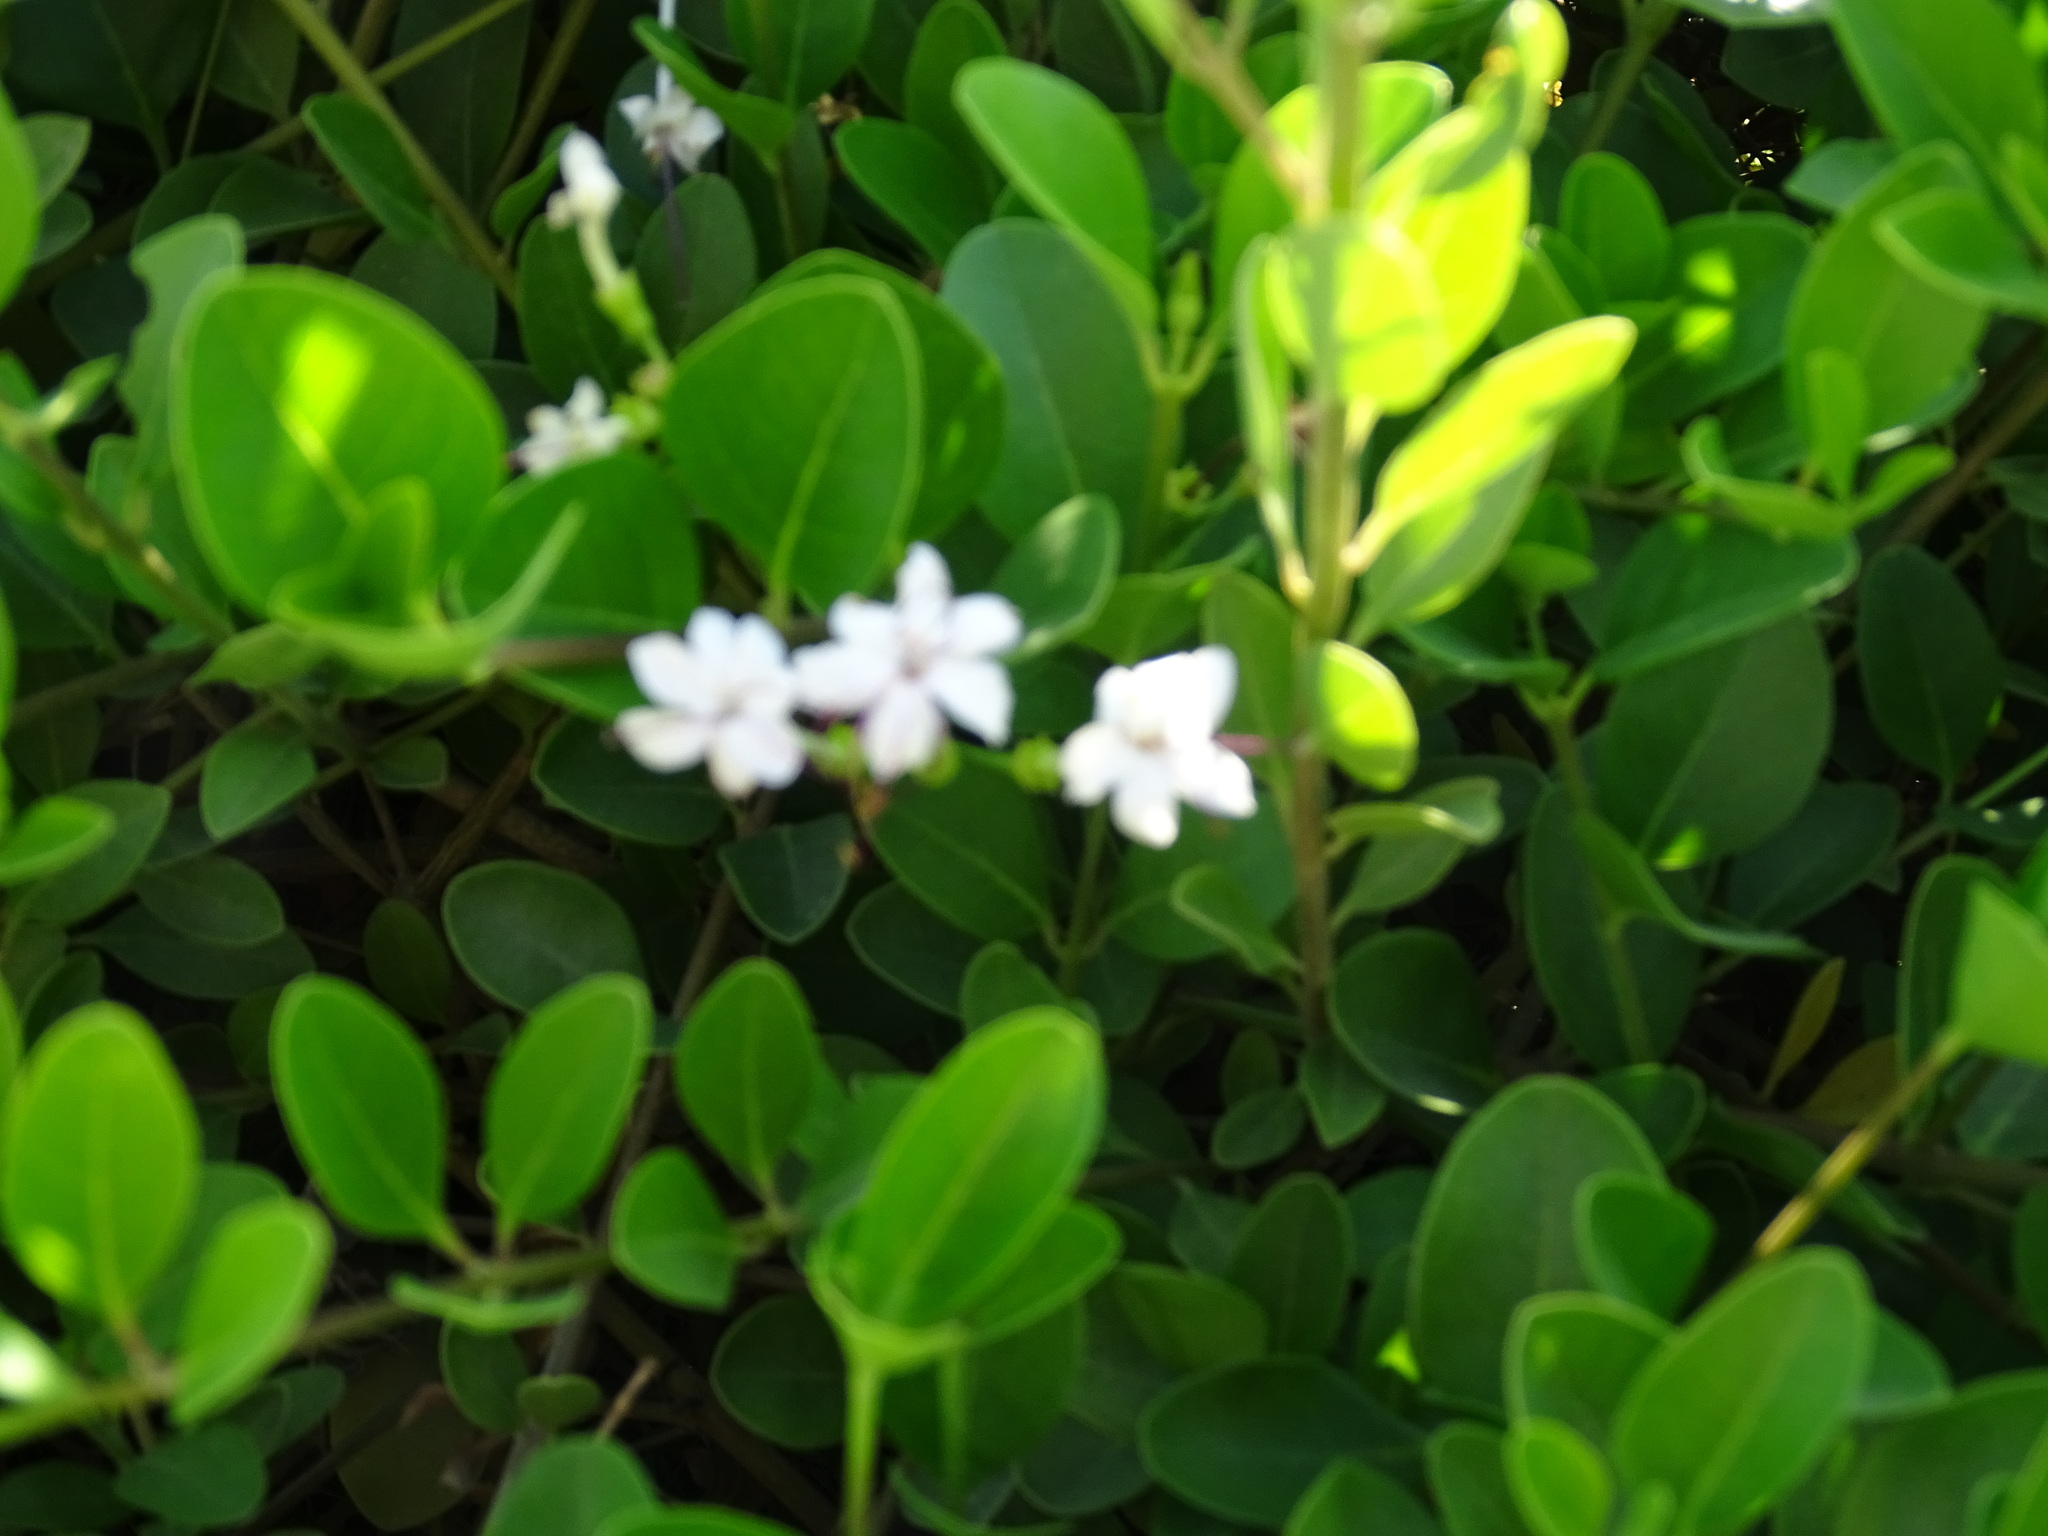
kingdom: Plantae
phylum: Tracheophyta
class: Magnoliopsida
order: Lamiales
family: Lamiaceae
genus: Volkameria
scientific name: Volkameria inermis
